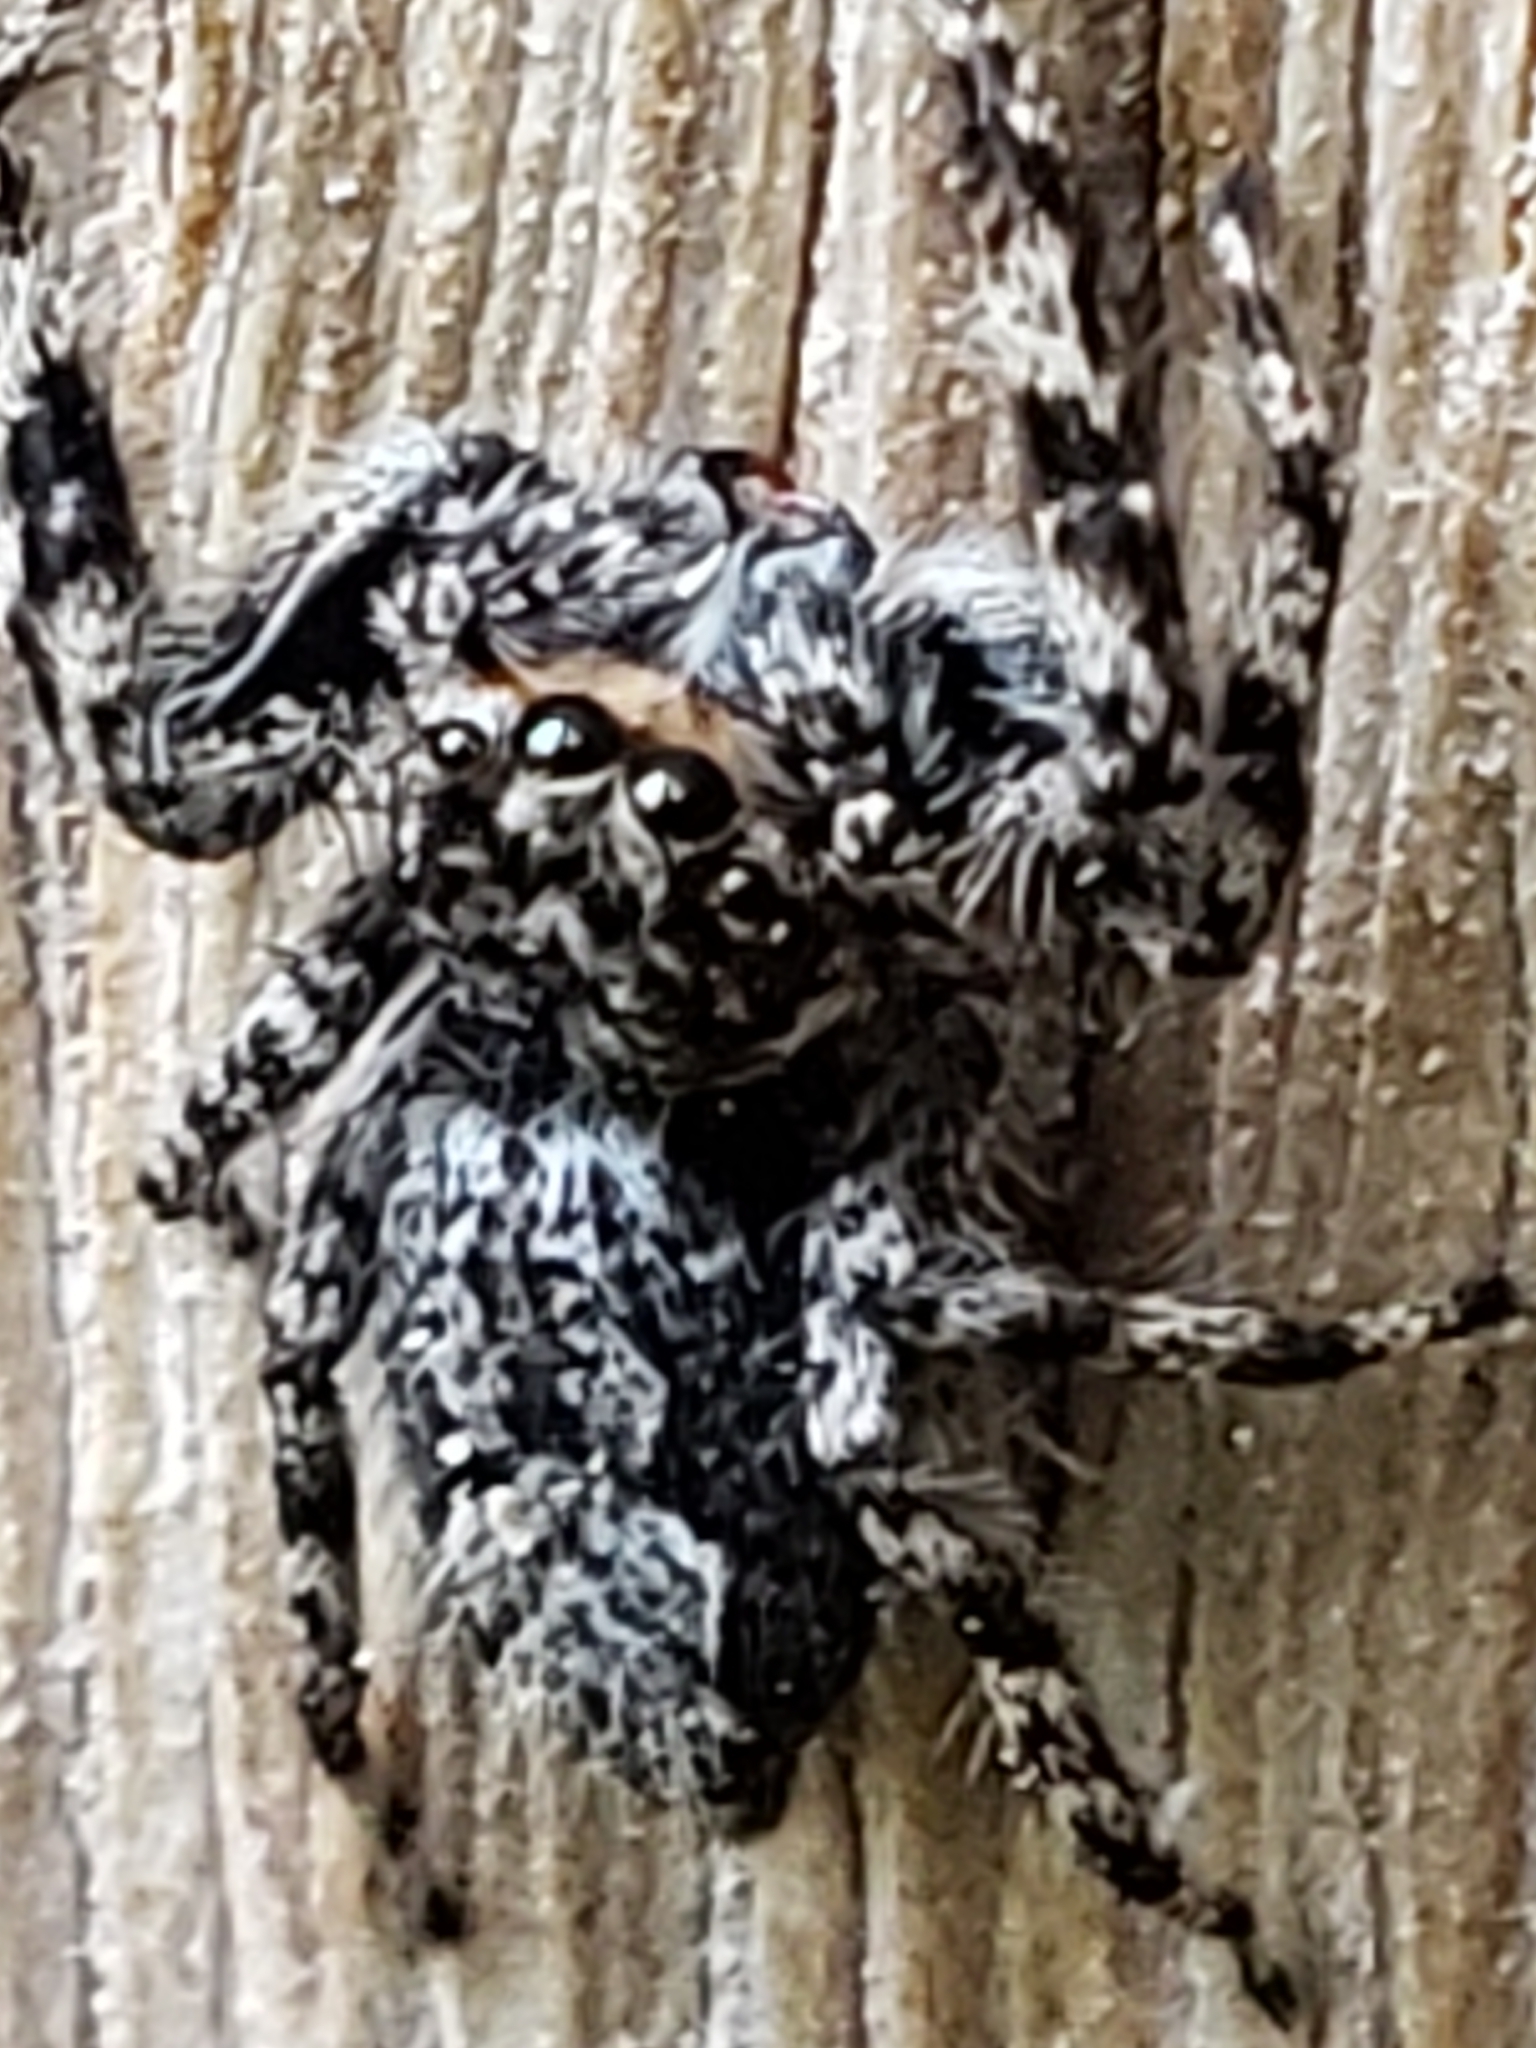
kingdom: Animalia
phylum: Arthropoda
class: Arachnida
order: Araneae
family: Salticidae
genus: Platycryptus
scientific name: Platycryptus undatus
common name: Tan jumping spider
